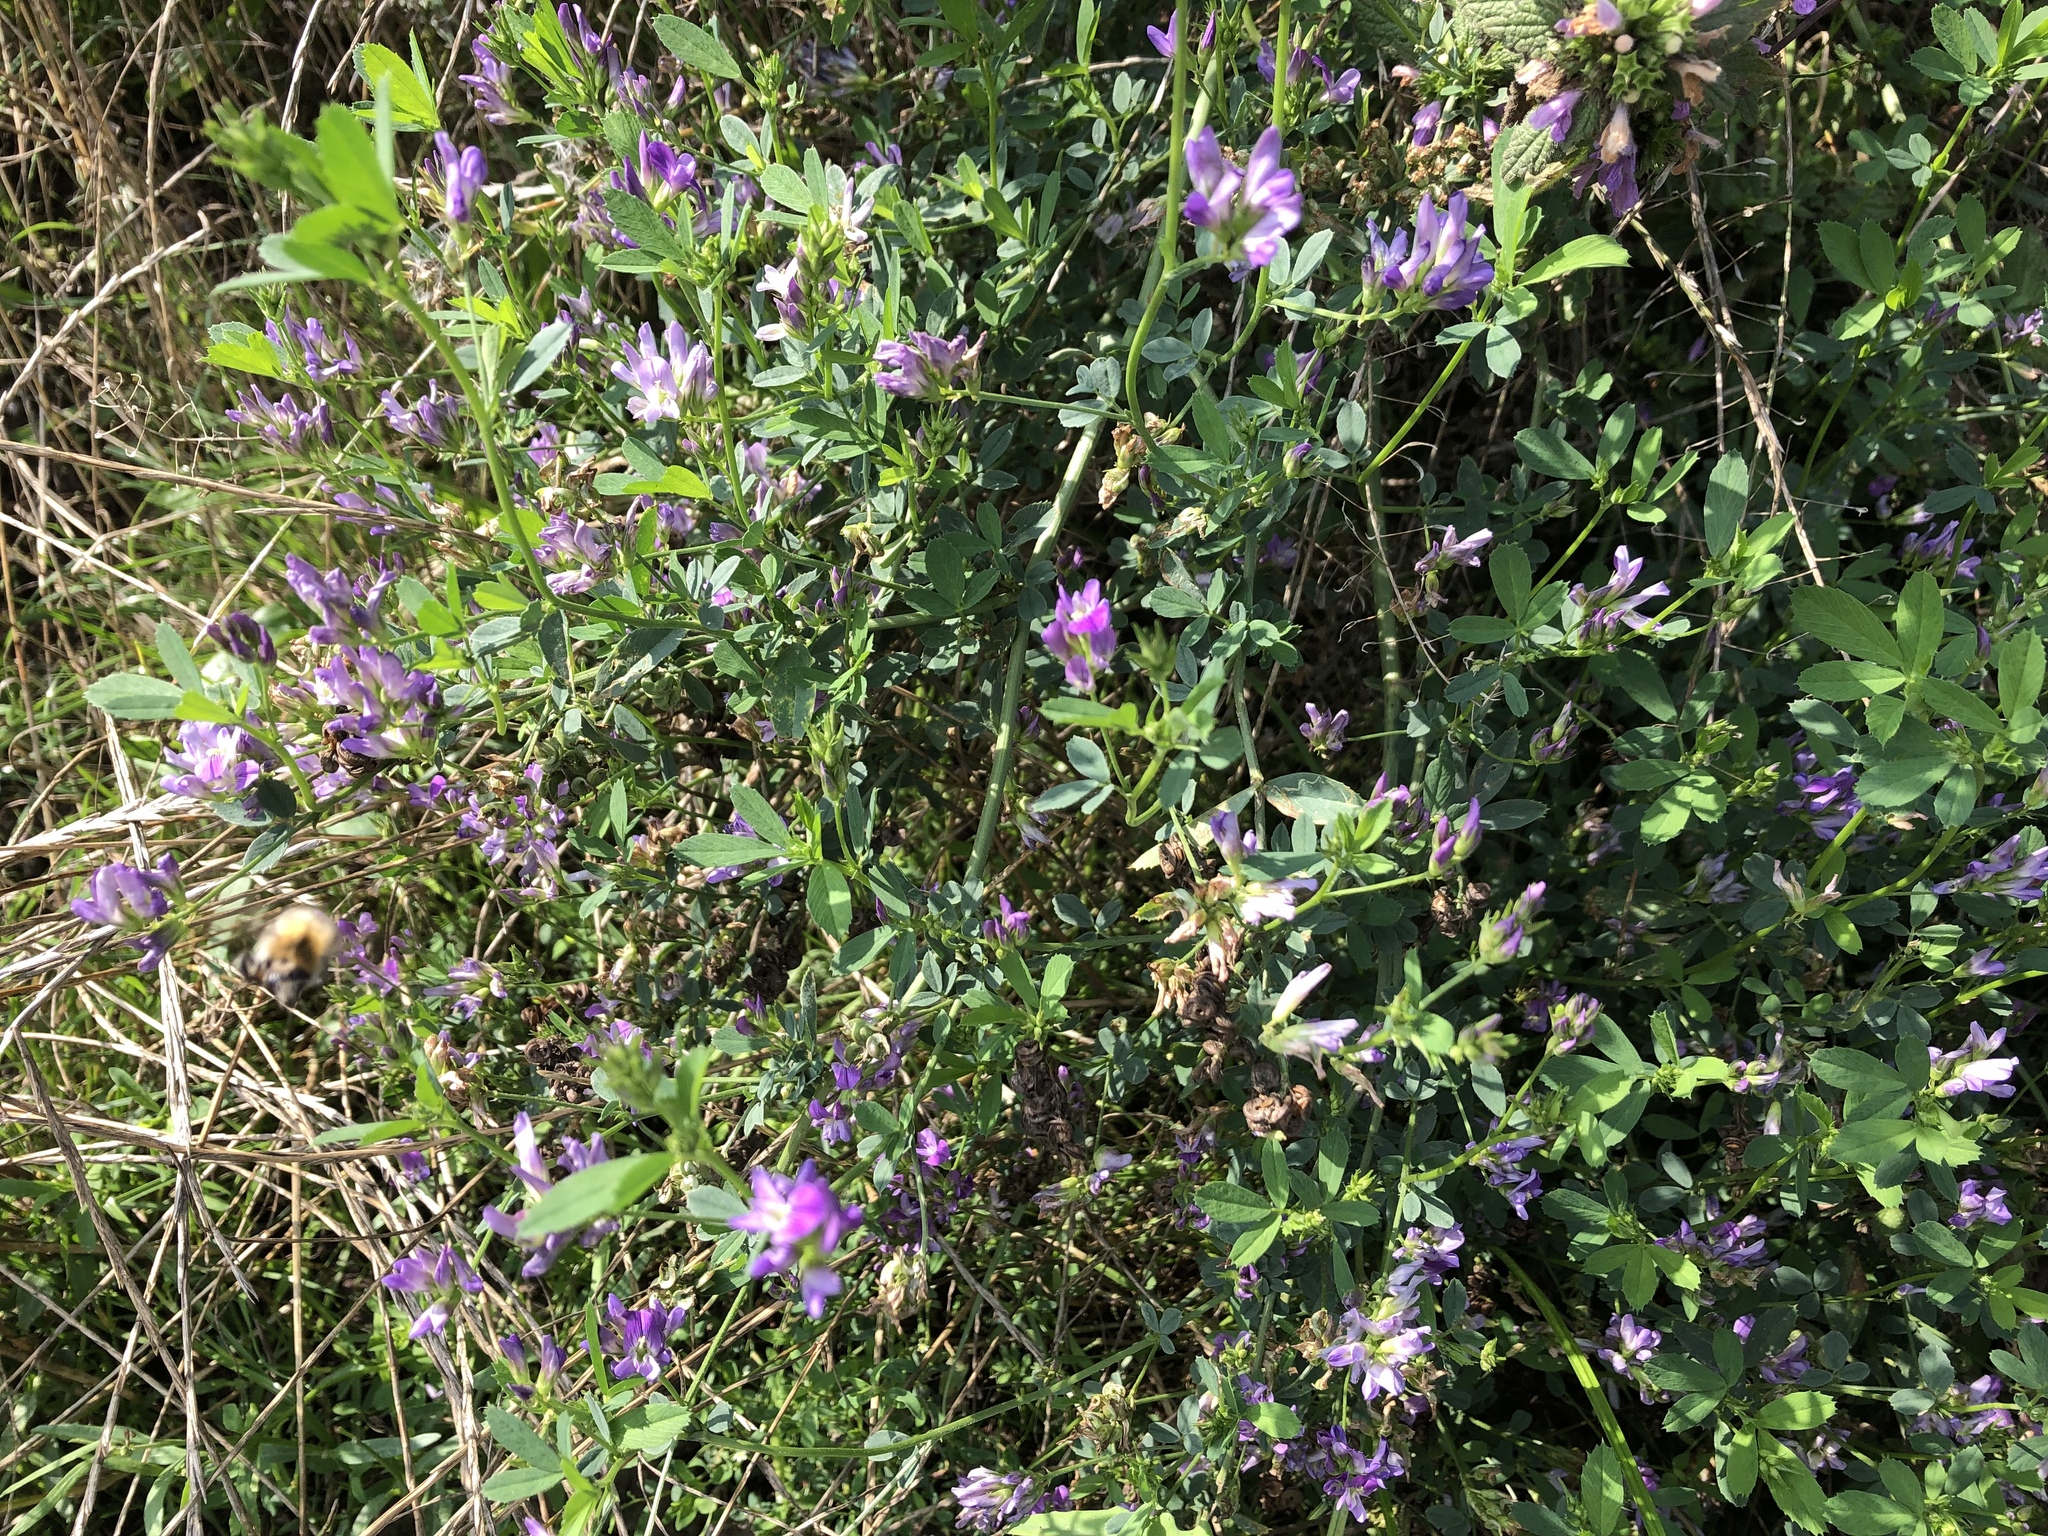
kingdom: Plantae
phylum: Tracheophyta
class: Magnoliopsida
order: Fabales
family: Fabaceae
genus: Medicago
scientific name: Medicago sativa
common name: Alfalfa
